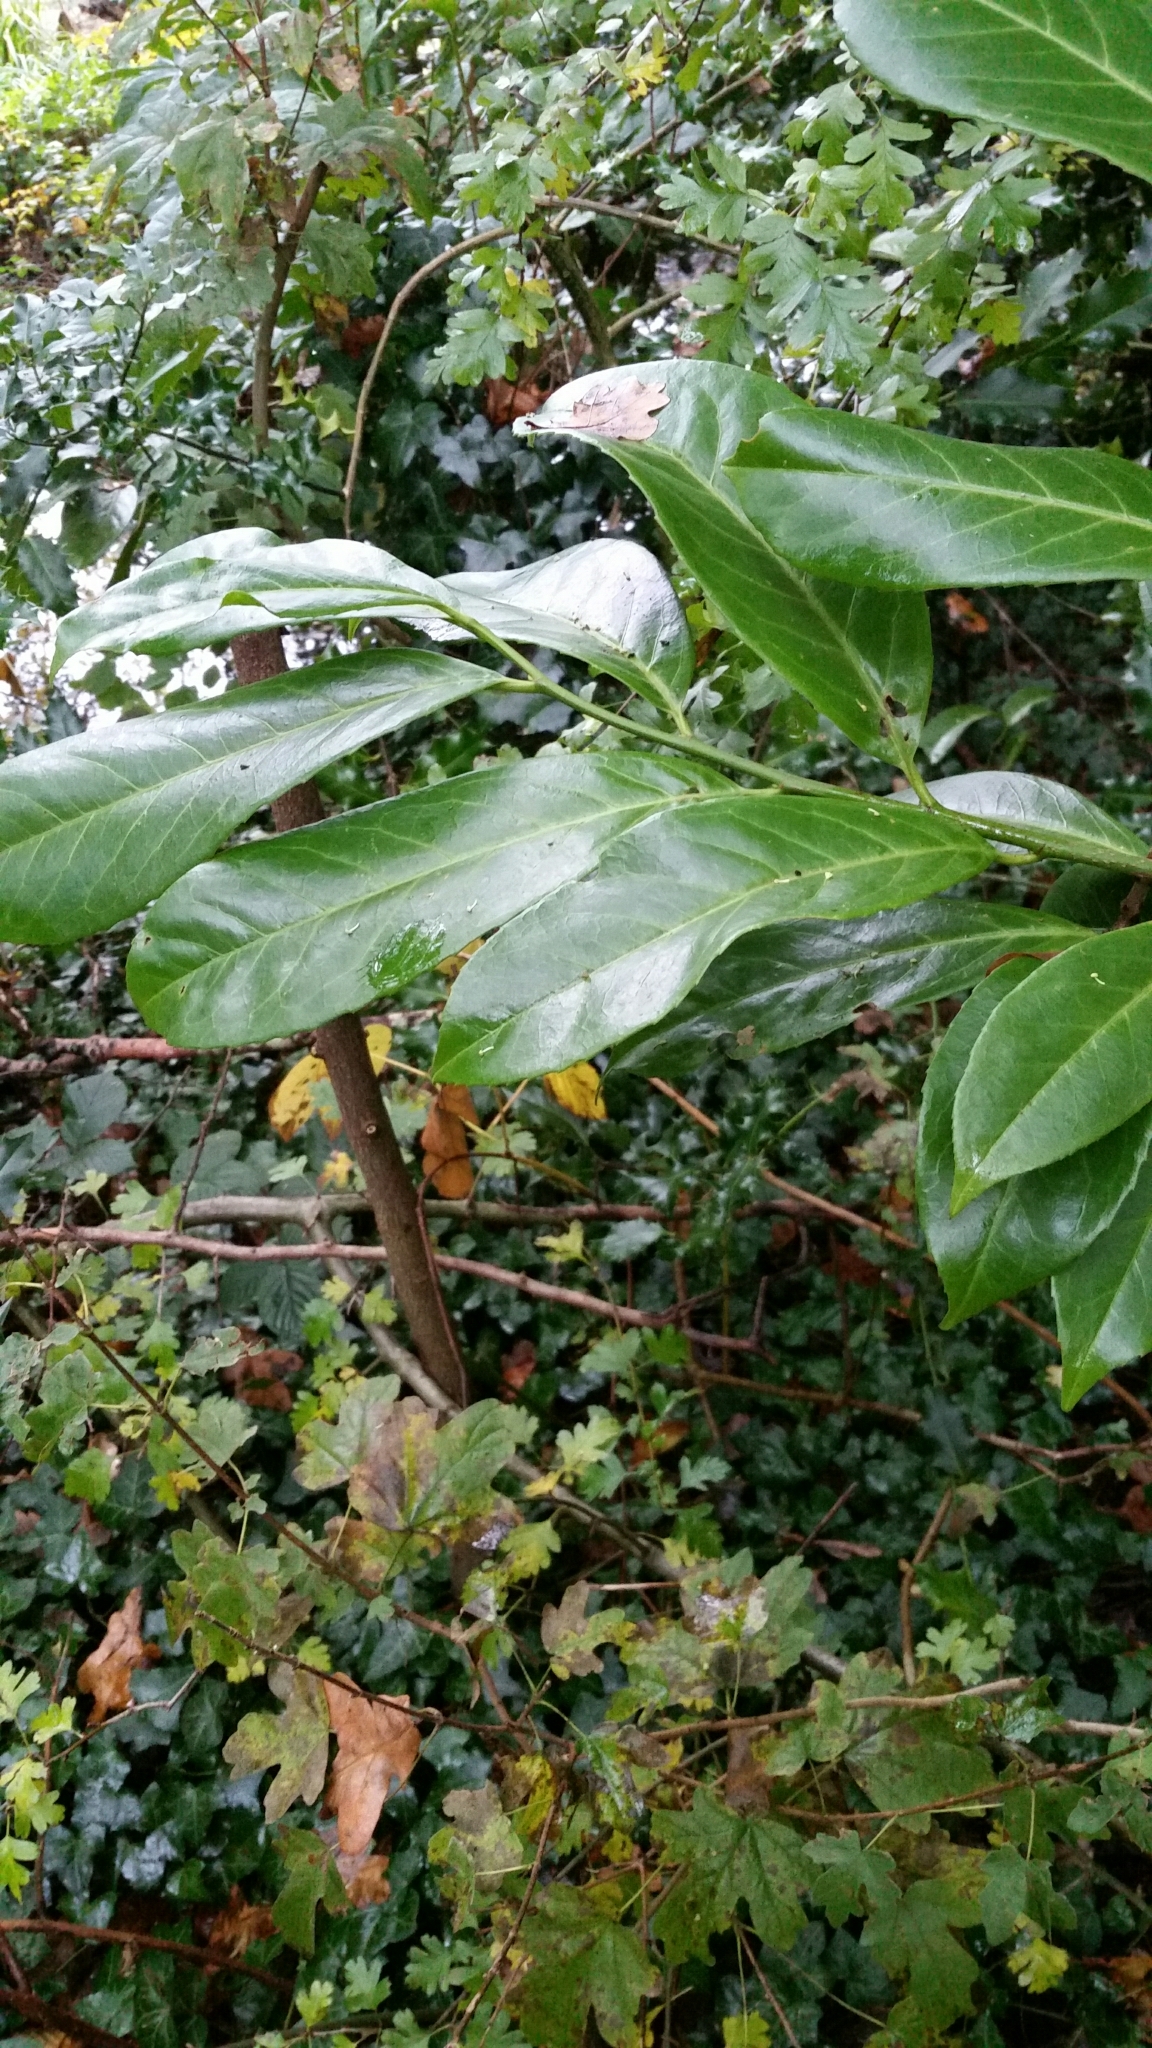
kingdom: Plantae
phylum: Tracheophyta
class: Magnoliopsida
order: Rosales
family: Rosaceae
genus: Prunus
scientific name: Prunus laurocerasus
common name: Cherry laurel
